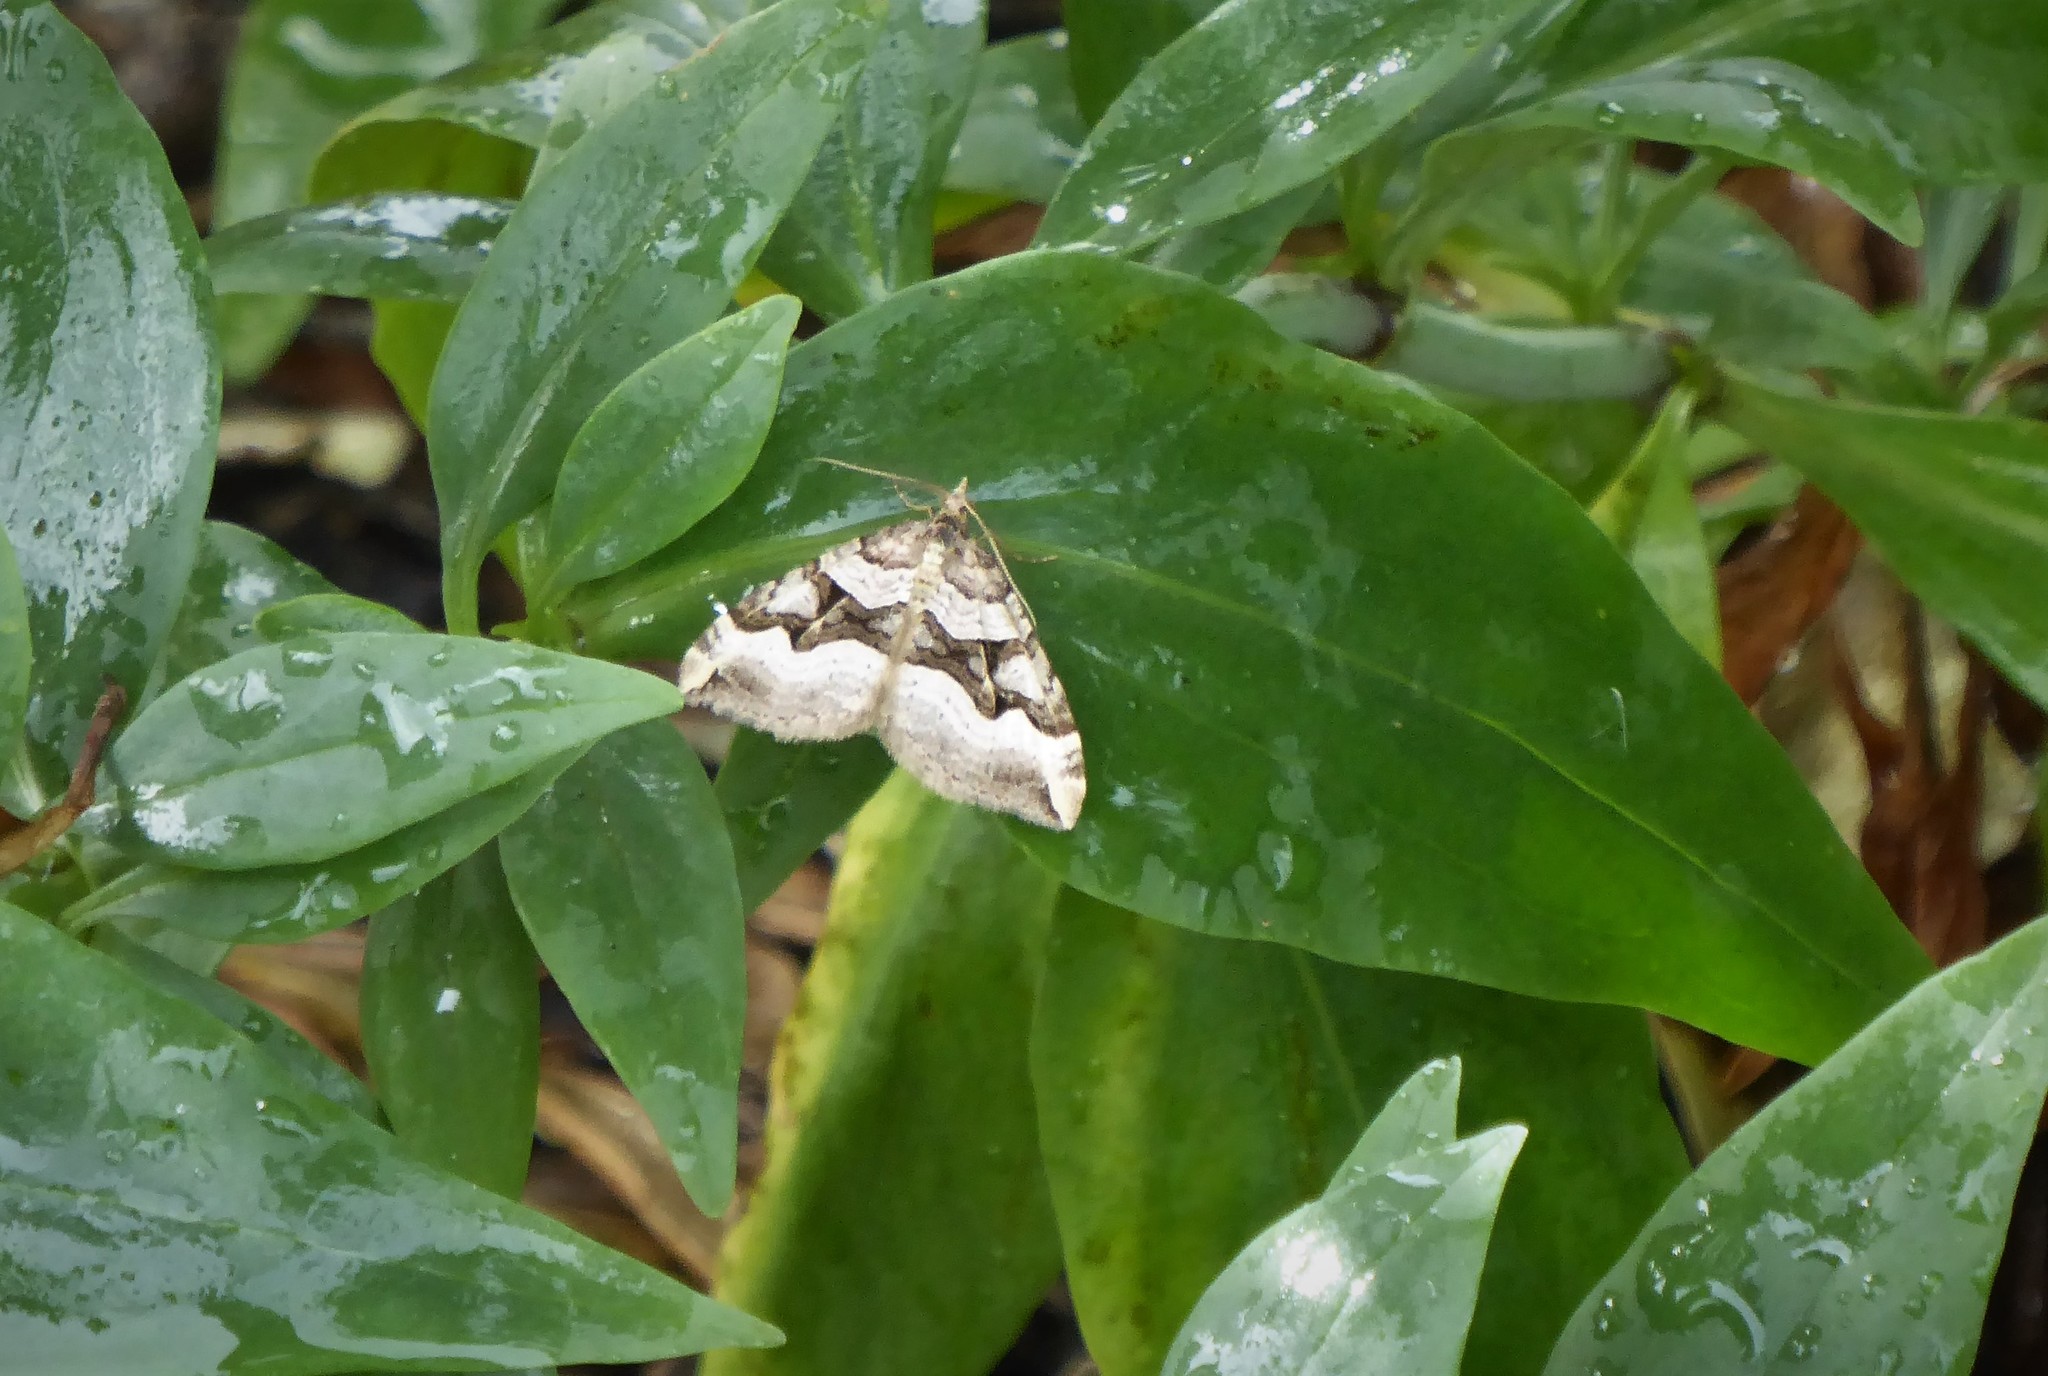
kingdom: Animalia
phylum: Arthropoda
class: Insecta
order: Lepidoptera
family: Geometridae
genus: Xanthorhoe
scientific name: Xanthorhoe semifissata
